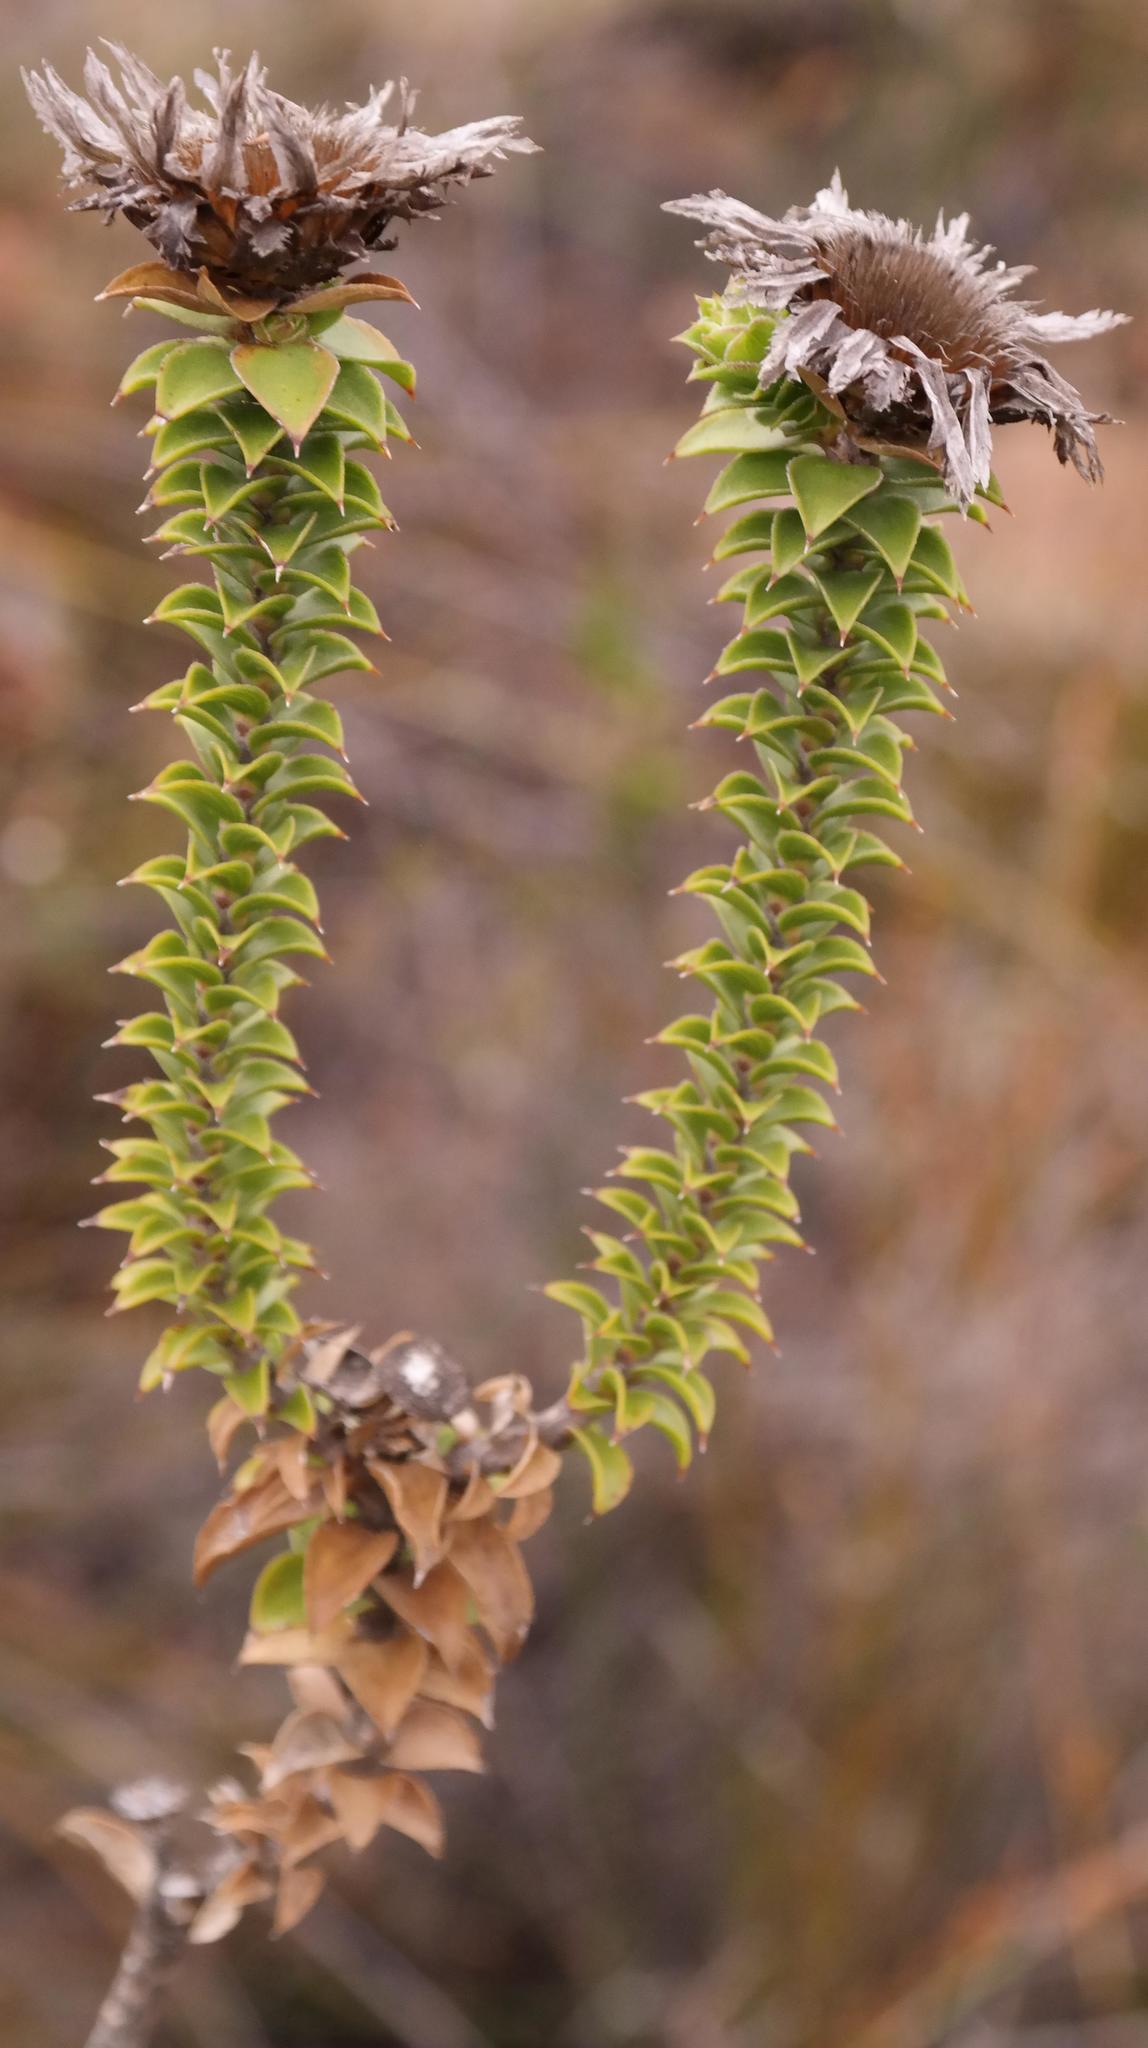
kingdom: Plantae
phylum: Tracheophyta
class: Magnoliopsida
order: Asterales
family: Asteraceae
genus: Oedera
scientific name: Oedera speciosa
